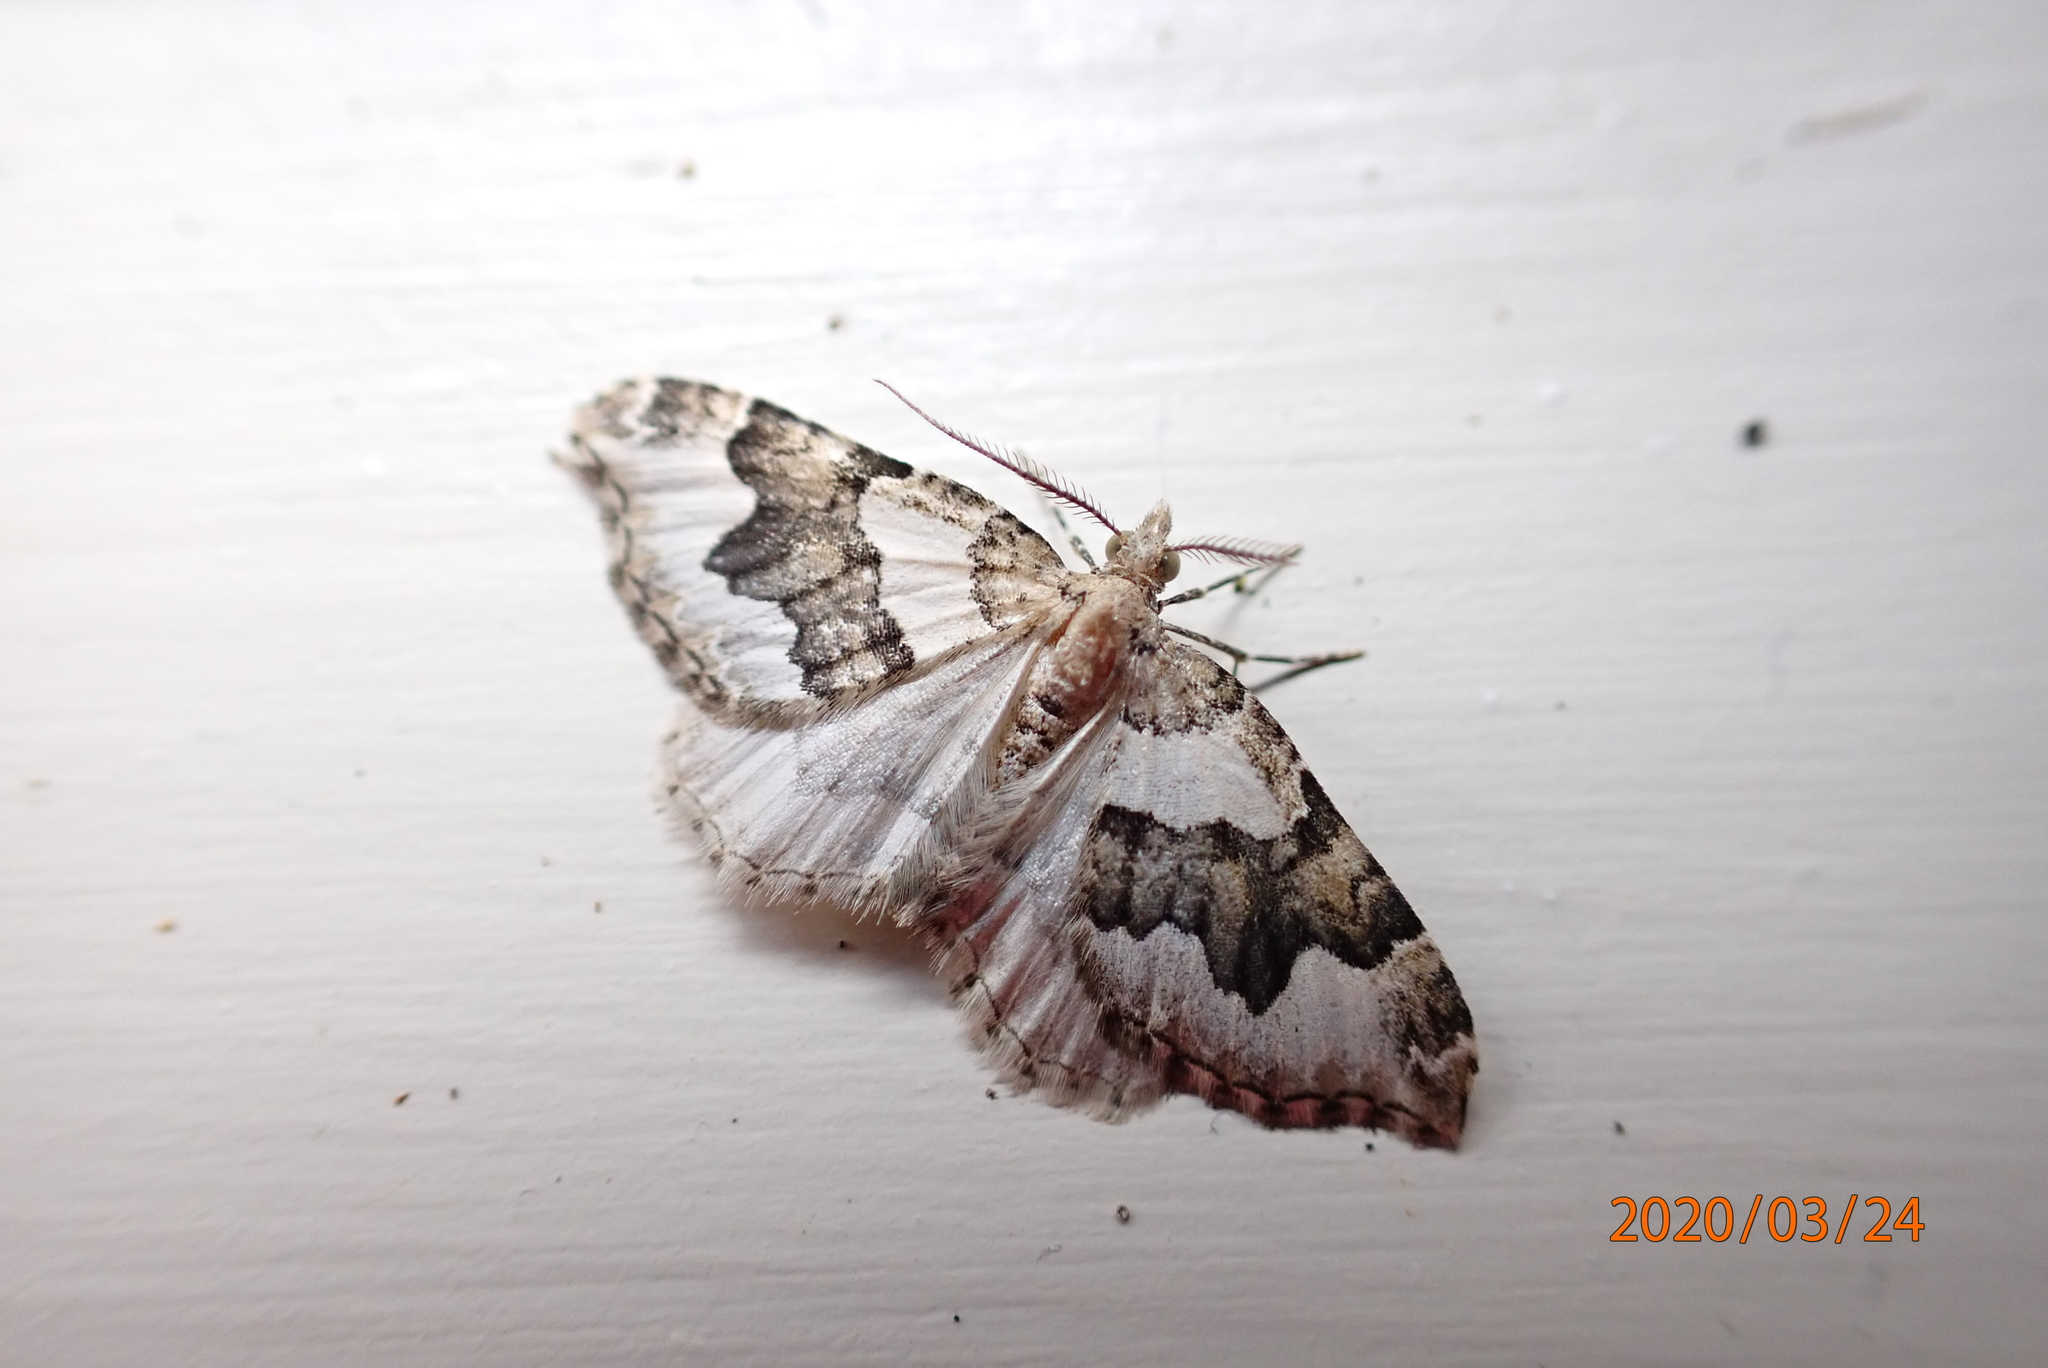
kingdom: Animalia
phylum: Arthropoda
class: Insecta
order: Lepidoptera
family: Geometridae
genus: Helastia
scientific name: Helastia cymozeucta
